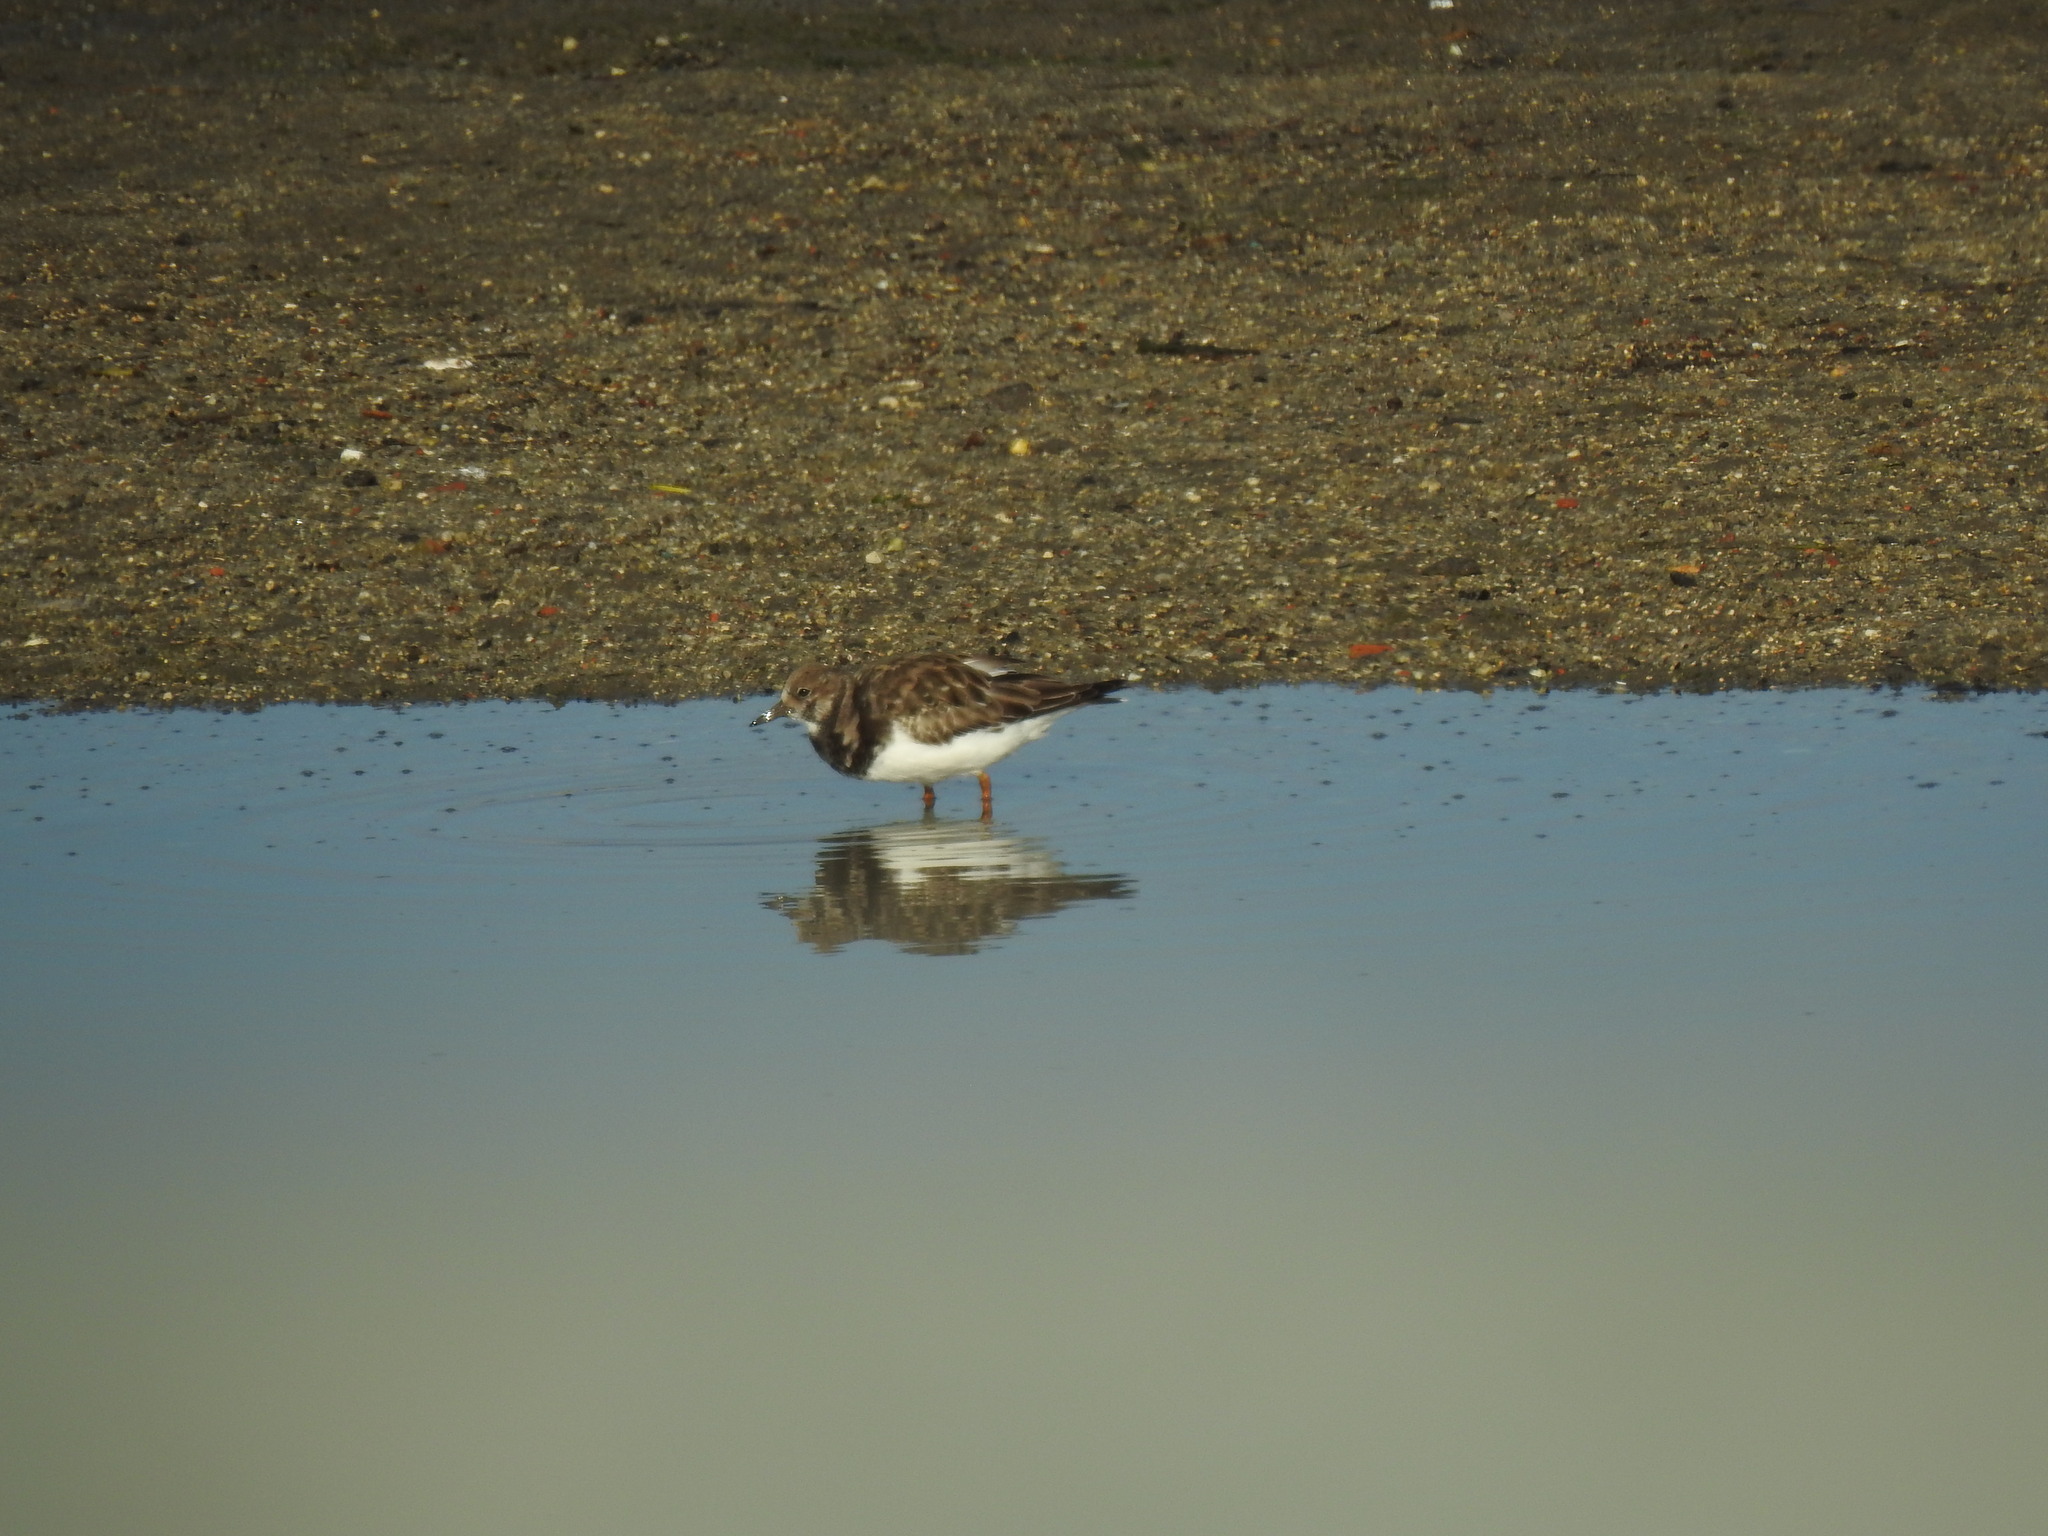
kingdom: Animalia
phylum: Chordata
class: Aves
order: Charadriiformes
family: Scolopacidae
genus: Arenaria
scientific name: Arenaria interpres
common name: Ruddy turnstone
